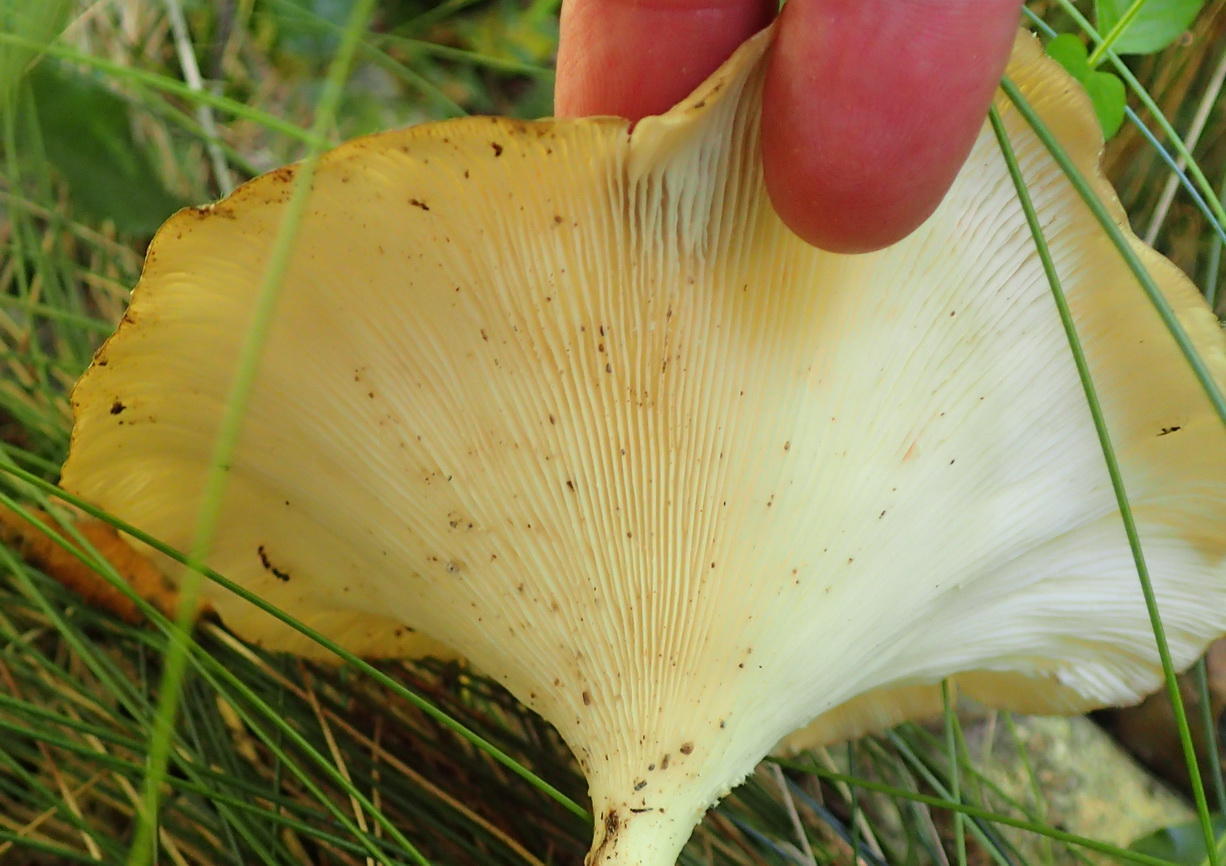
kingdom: Fungi
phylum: Basidiomycota
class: Agaricomycetes
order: Polyporales
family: Polyporaceae
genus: Lentinus
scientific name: Lentinus sajor-caju
